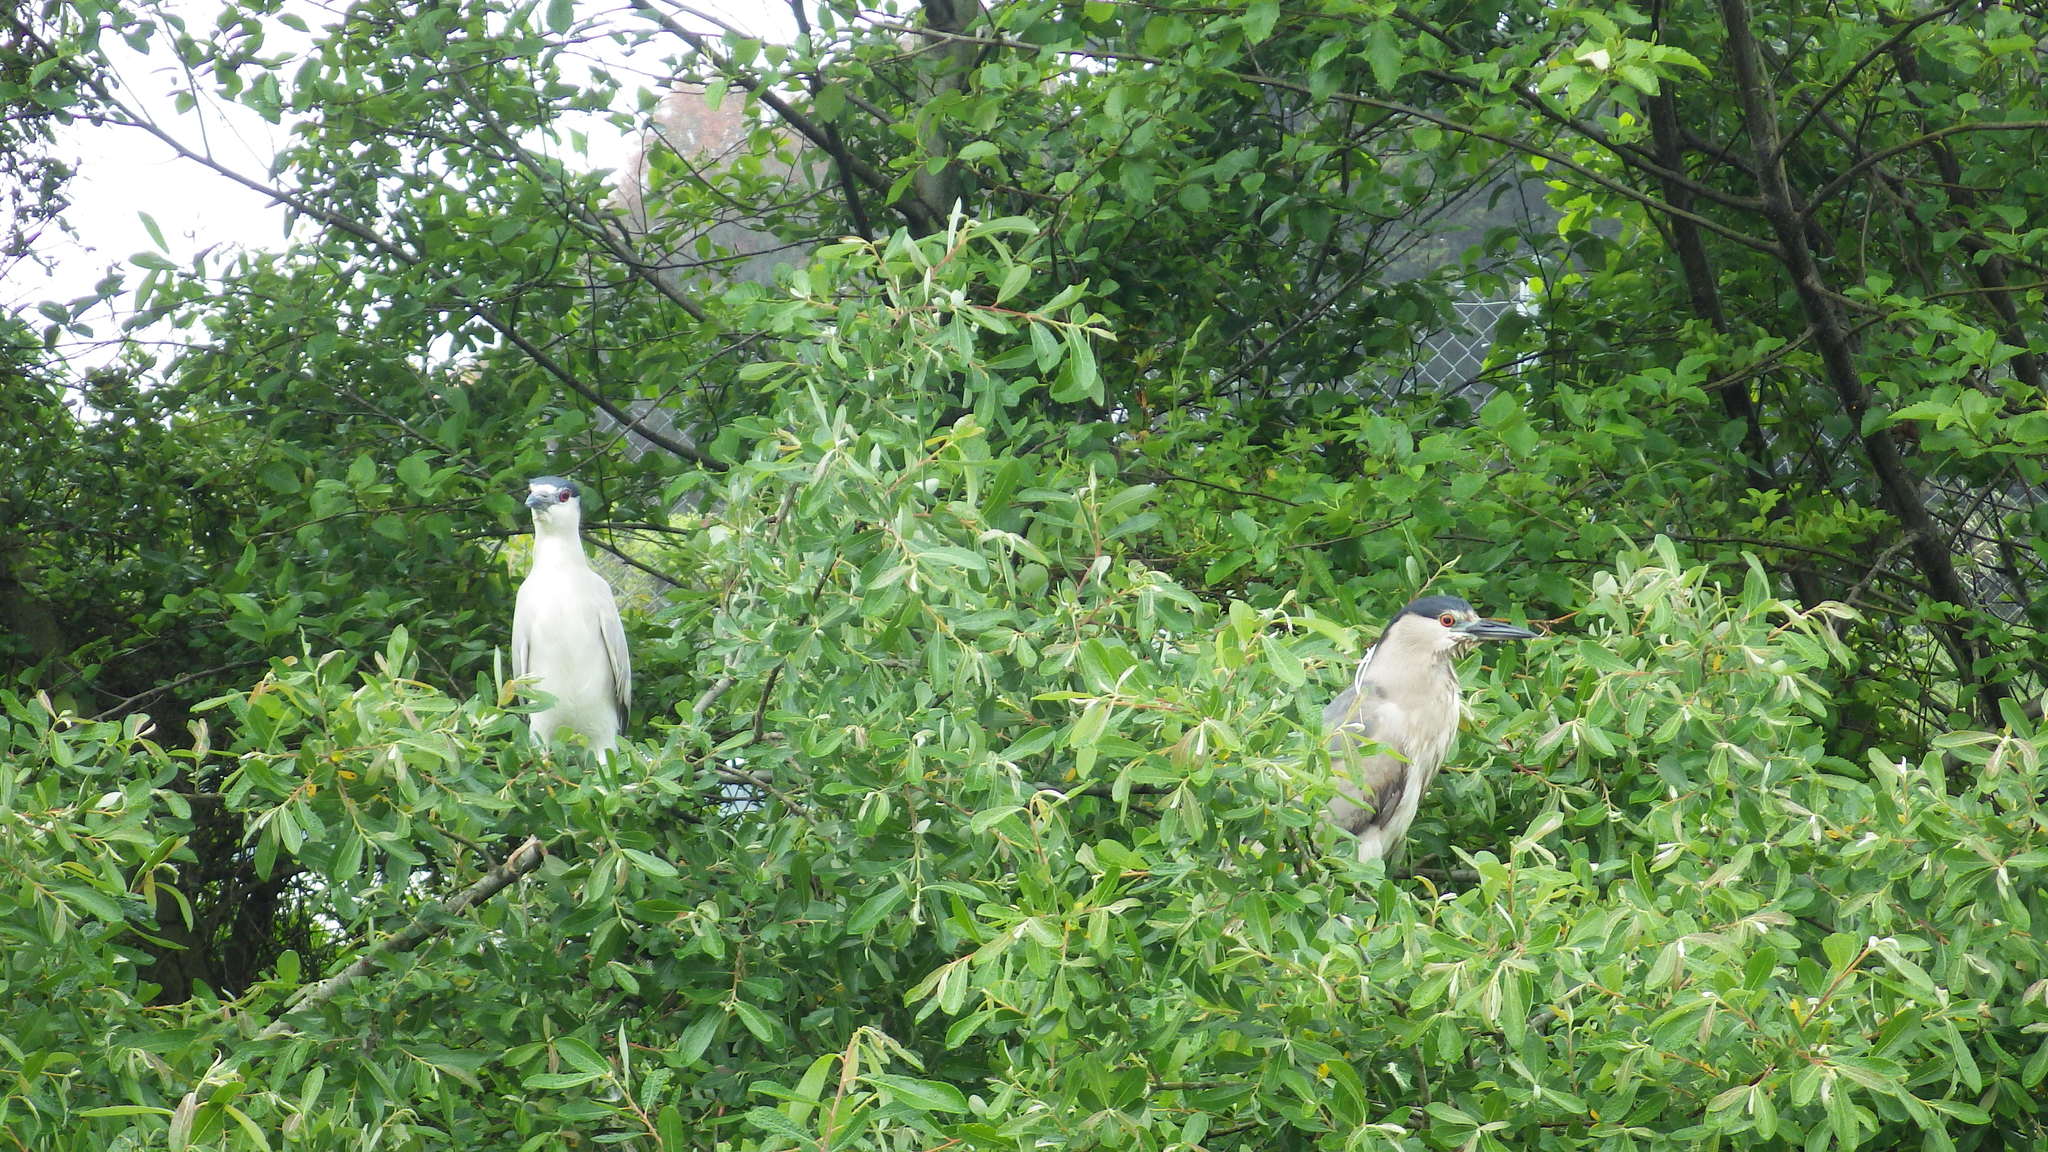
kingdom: Animalia
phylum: Chordata
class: Aves
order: Pelecaniformes
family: Ardeidae
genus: Nycticorax
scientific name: Nycticorax nycticorax
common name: Black-crowned night heron
